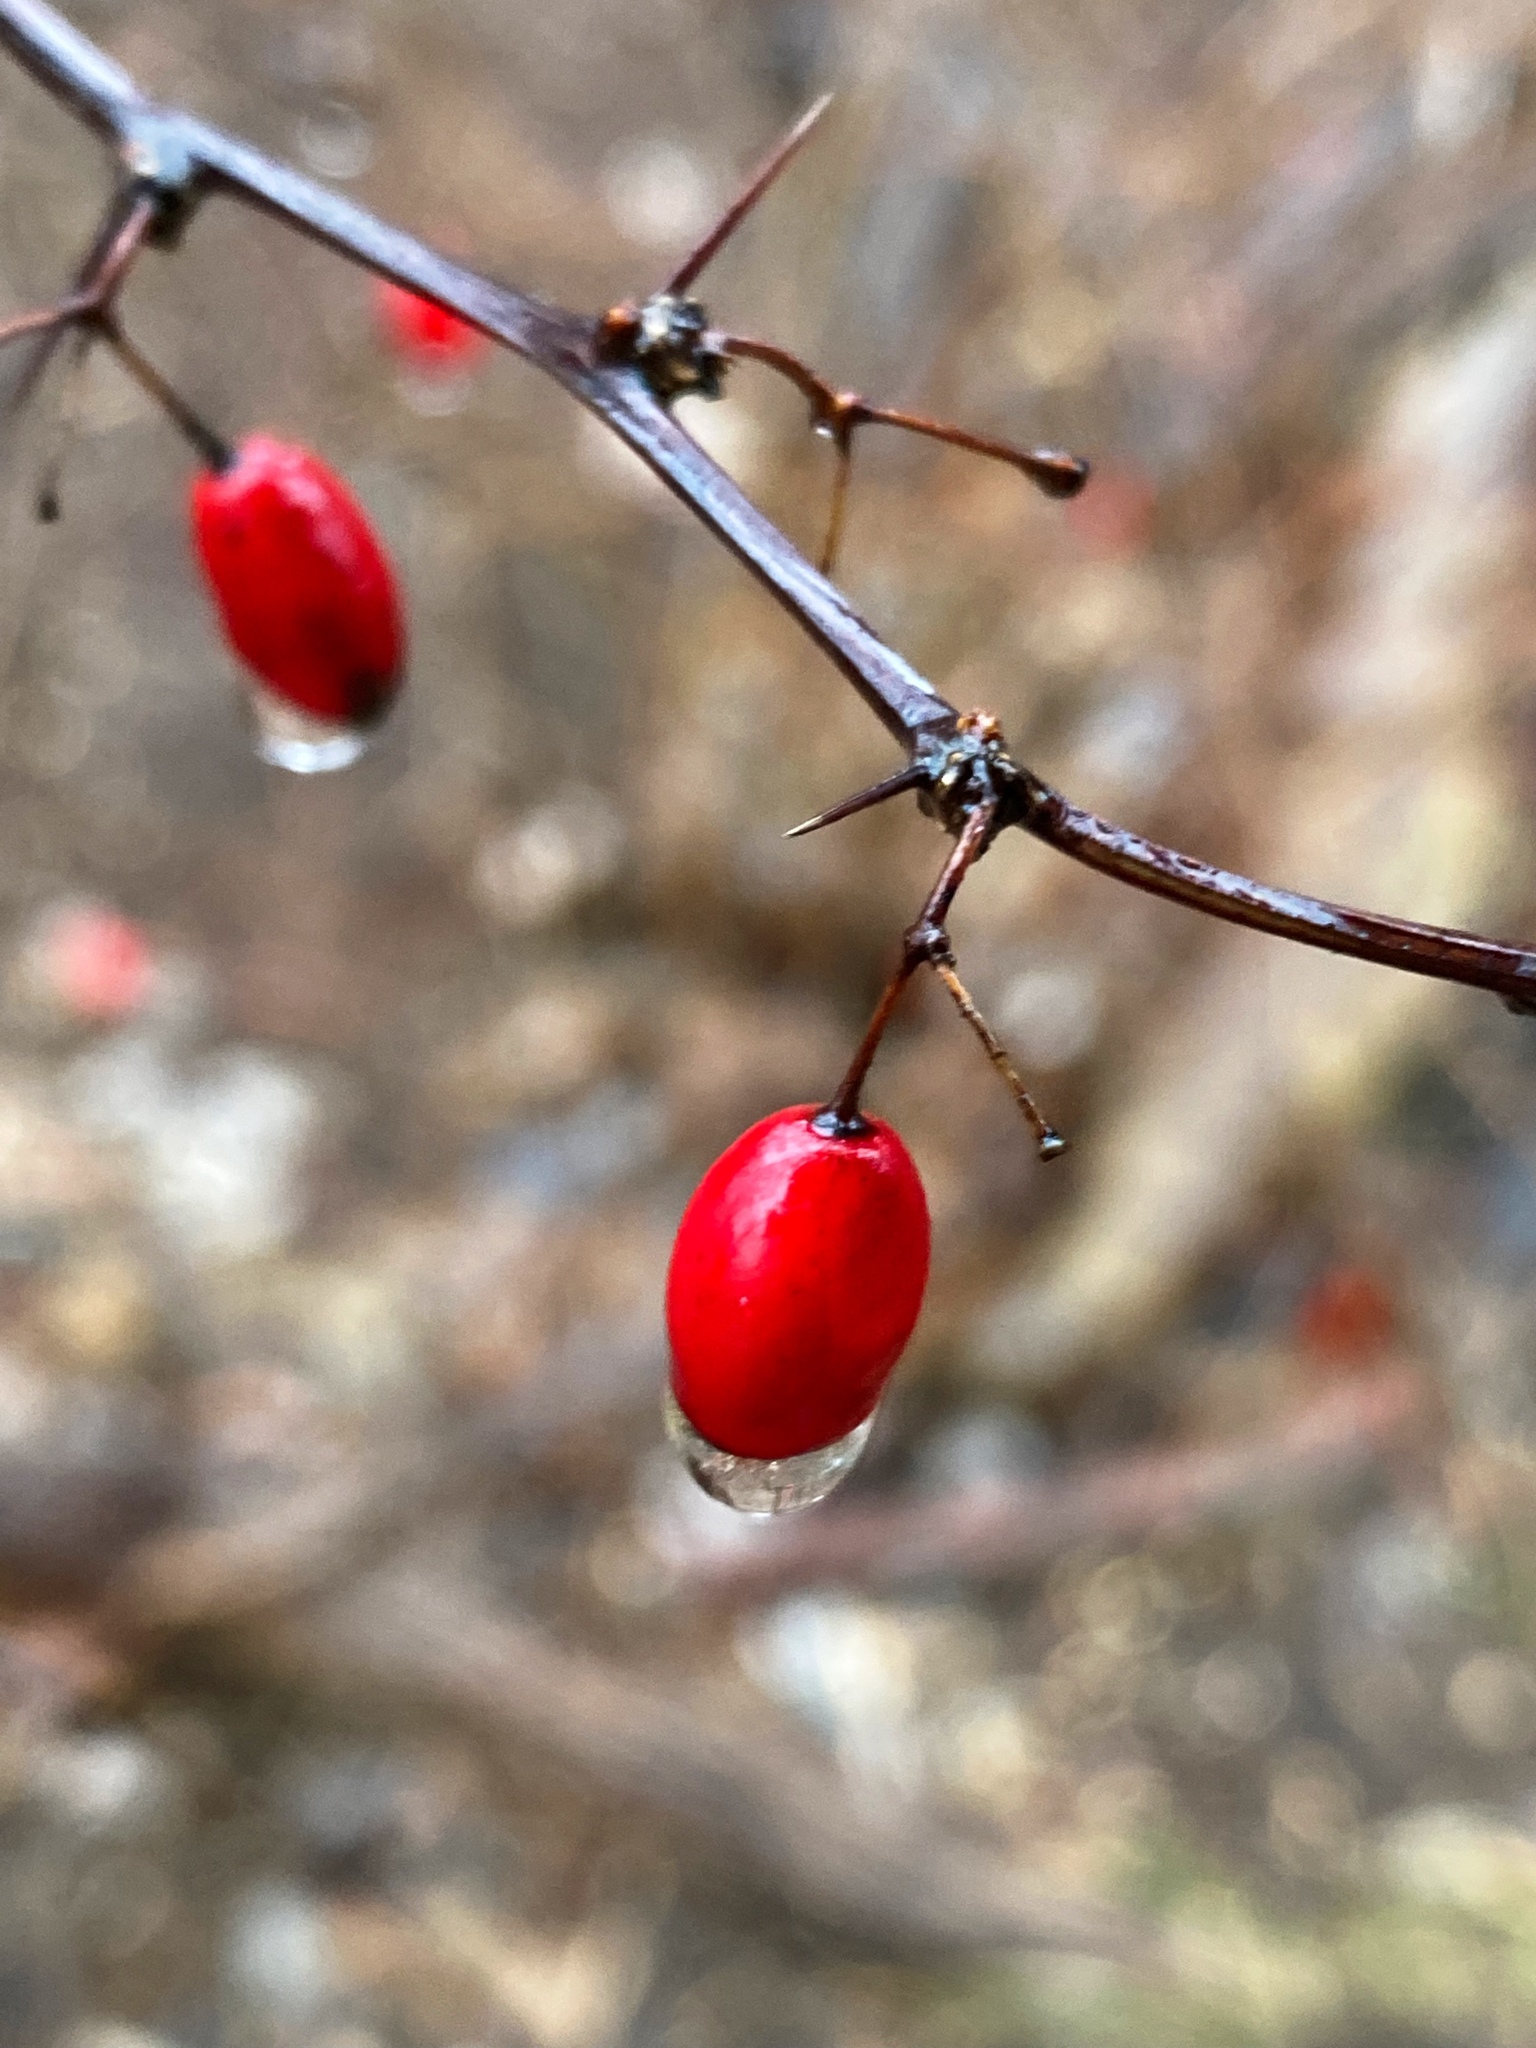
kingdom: Plantae
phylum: Tracheophyta
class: Magnoliopsida
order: Ranunculales
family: Berberidaceae
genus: Berberis
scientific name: Berberis thunbergii
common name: Japanese barberry
